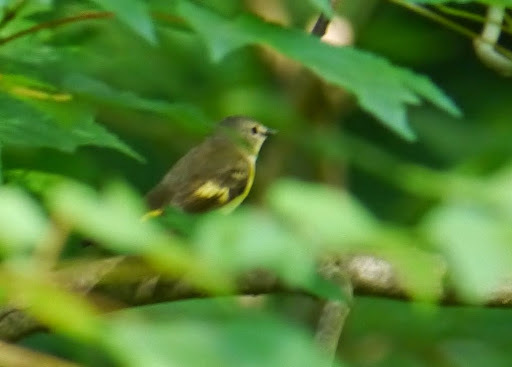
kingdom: Animalia
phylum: Chordata
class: Aves
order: Passeriformes
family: Parulidae
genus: Setophaga
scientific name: Setophaga ruticilla
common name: American redstart
